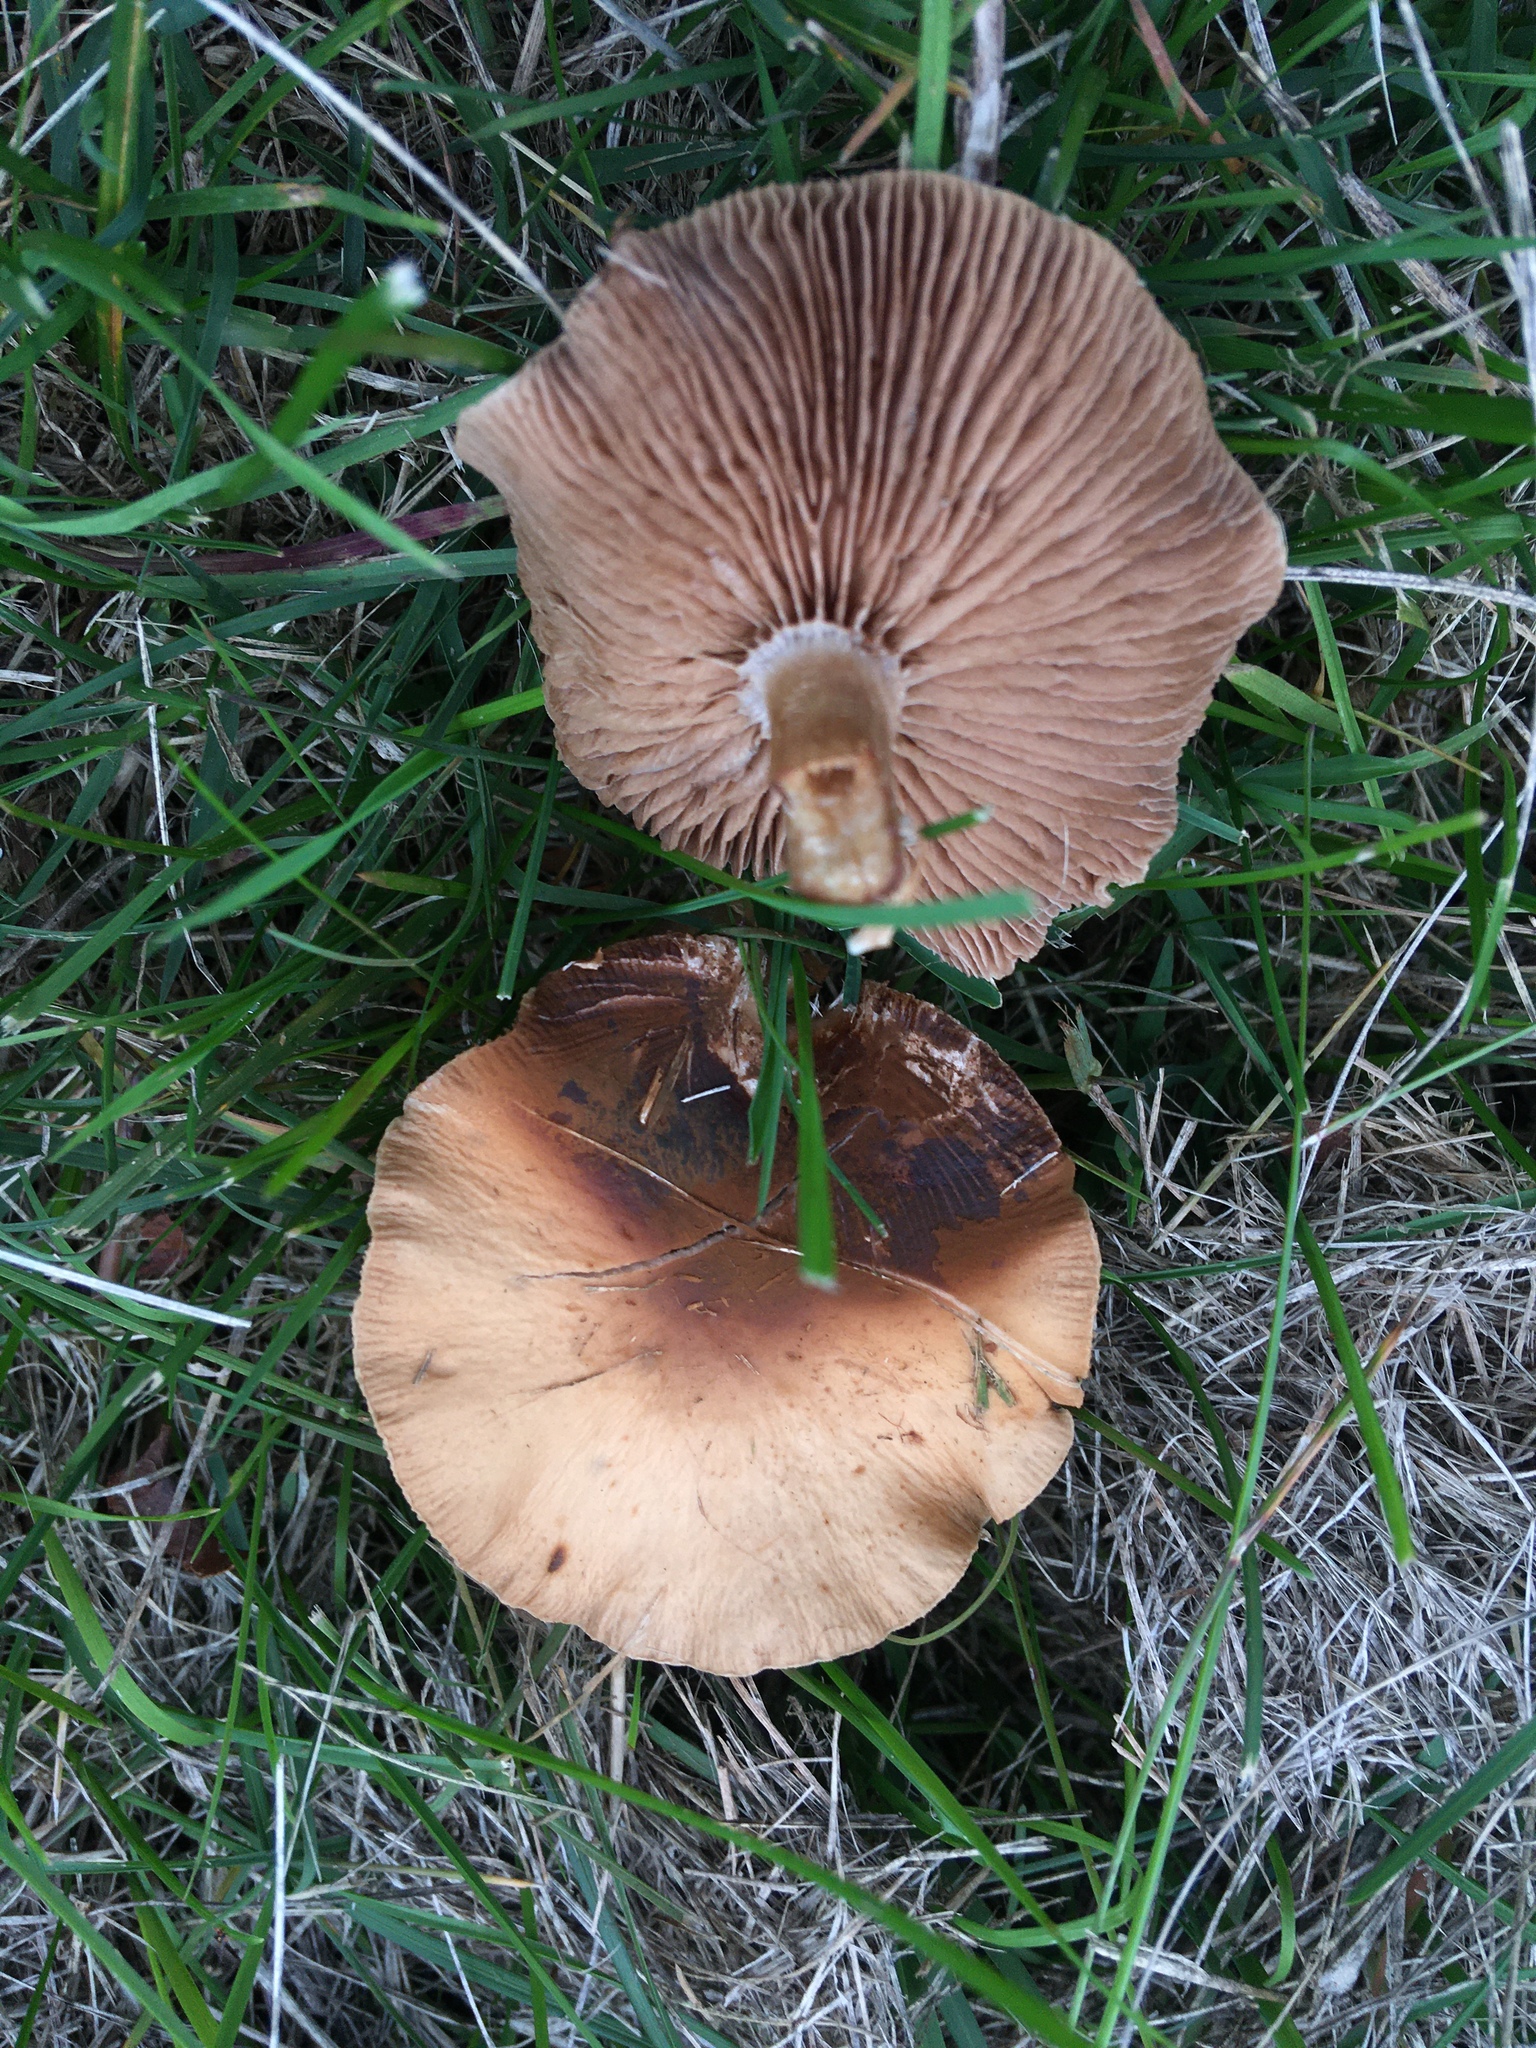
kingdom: Fungi
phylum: Basidiomycota
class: Agaricomycetes
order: Agaricales
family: Tubariaceae
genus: Cyclocybe
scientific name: Cyclocybe erebia
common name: Dark fieldcap
